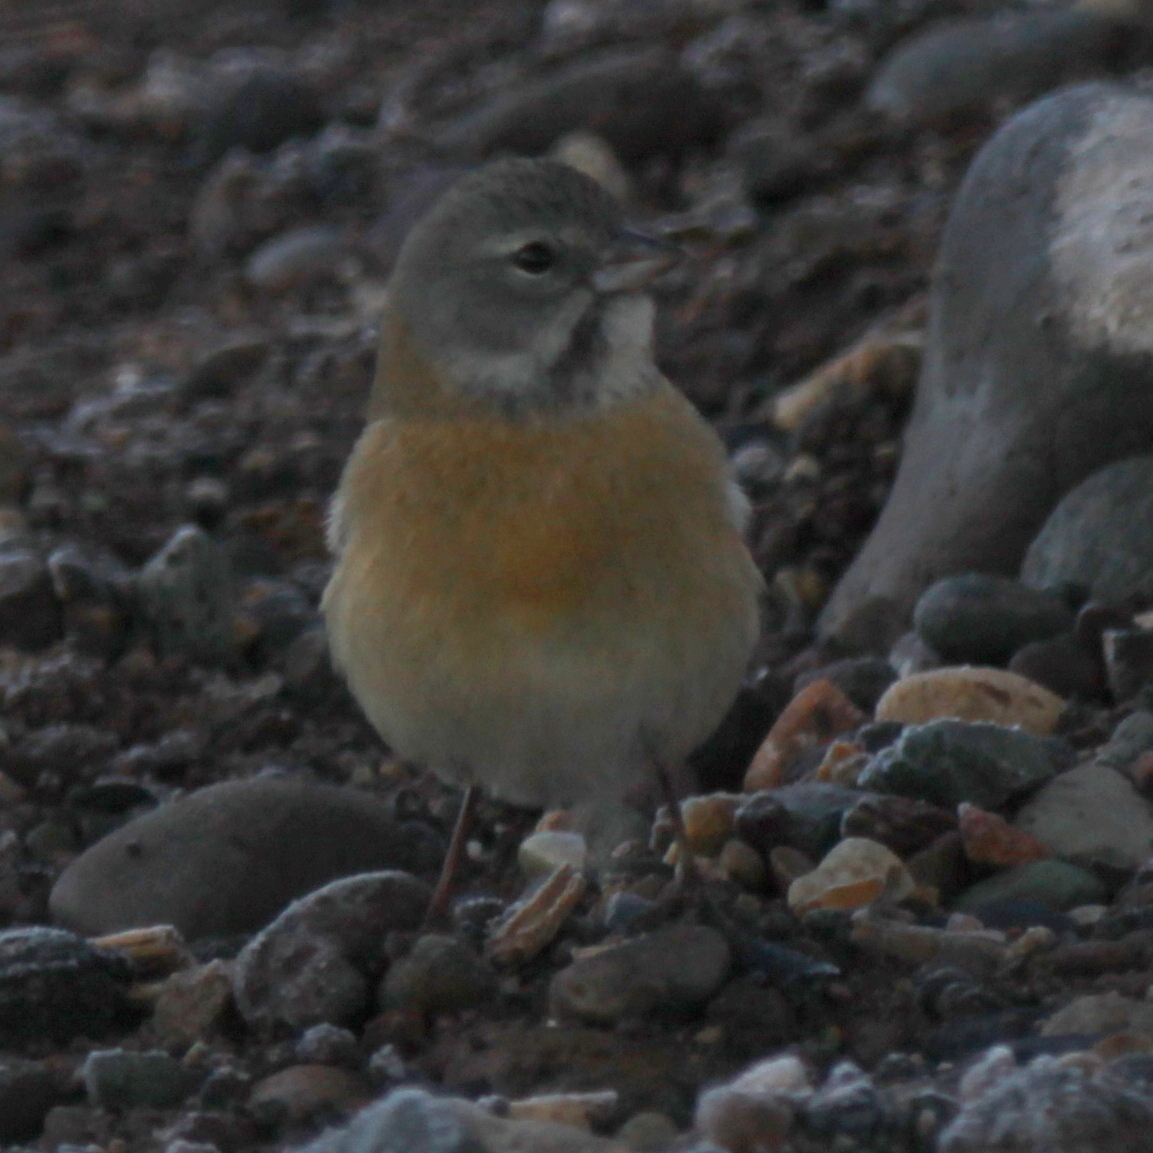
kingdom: Animalia
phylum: Chordata
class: Aves
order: Passeriformes
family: Thraupidae
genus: Phrygilus
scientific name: Phrygilus gayi
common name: Grey-hooded sierra finch
